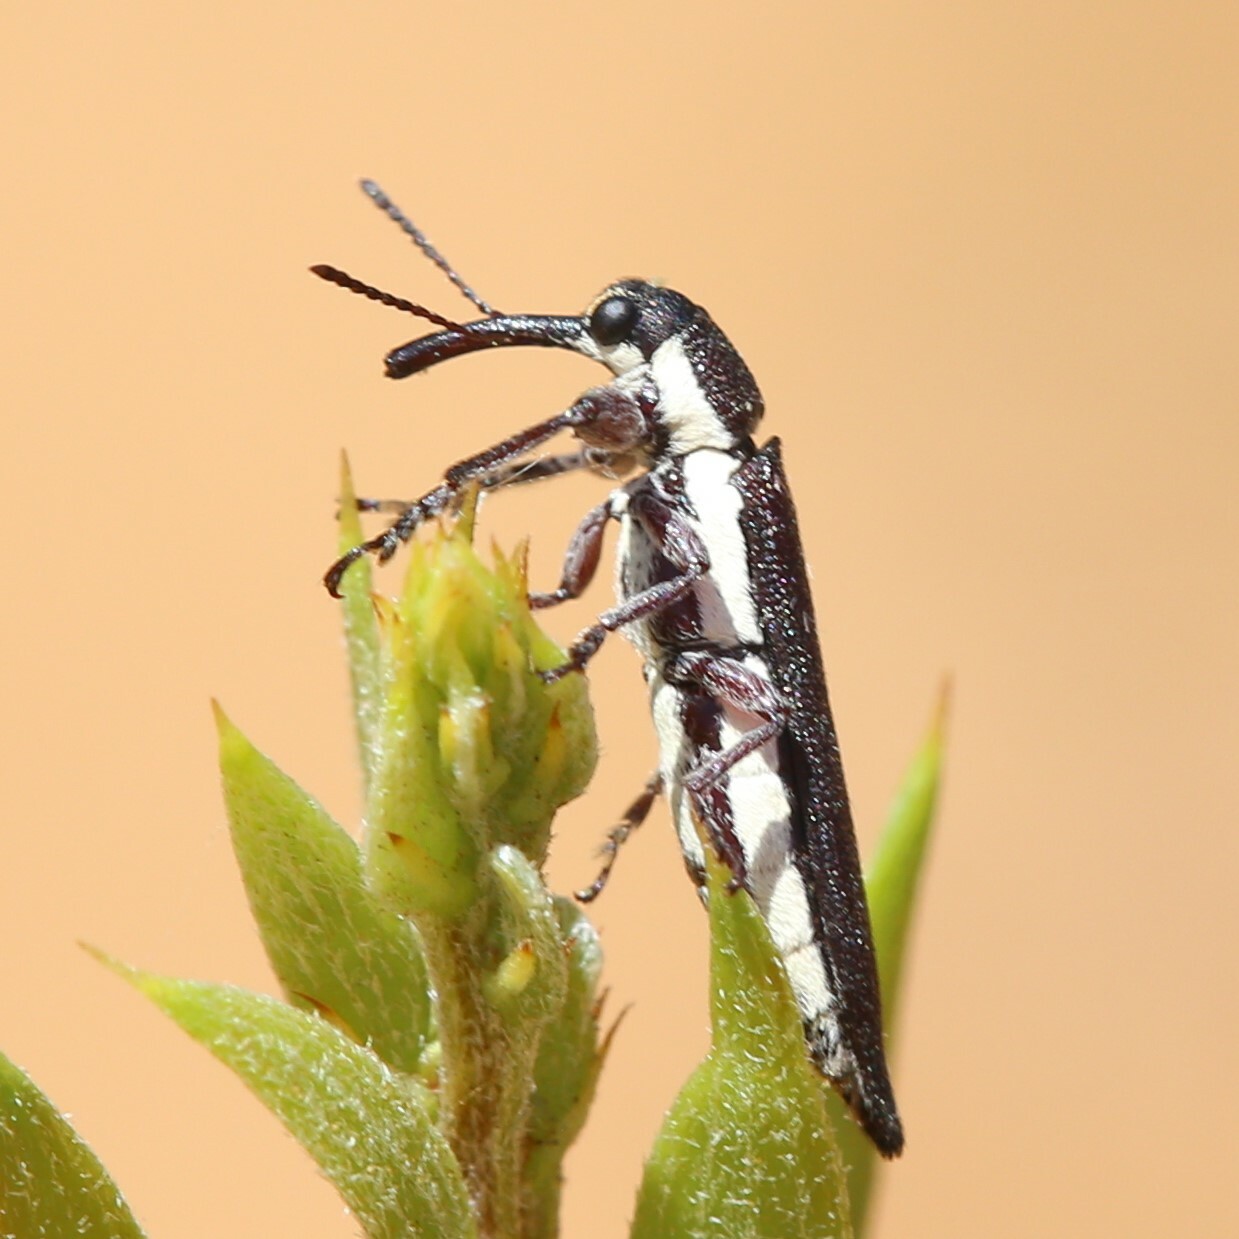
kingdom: Animalia
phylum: Arthropoda
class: Insecta
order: Coleoptera
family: Belidae
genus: Rhinotia
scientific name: Rhinotia suturalis
